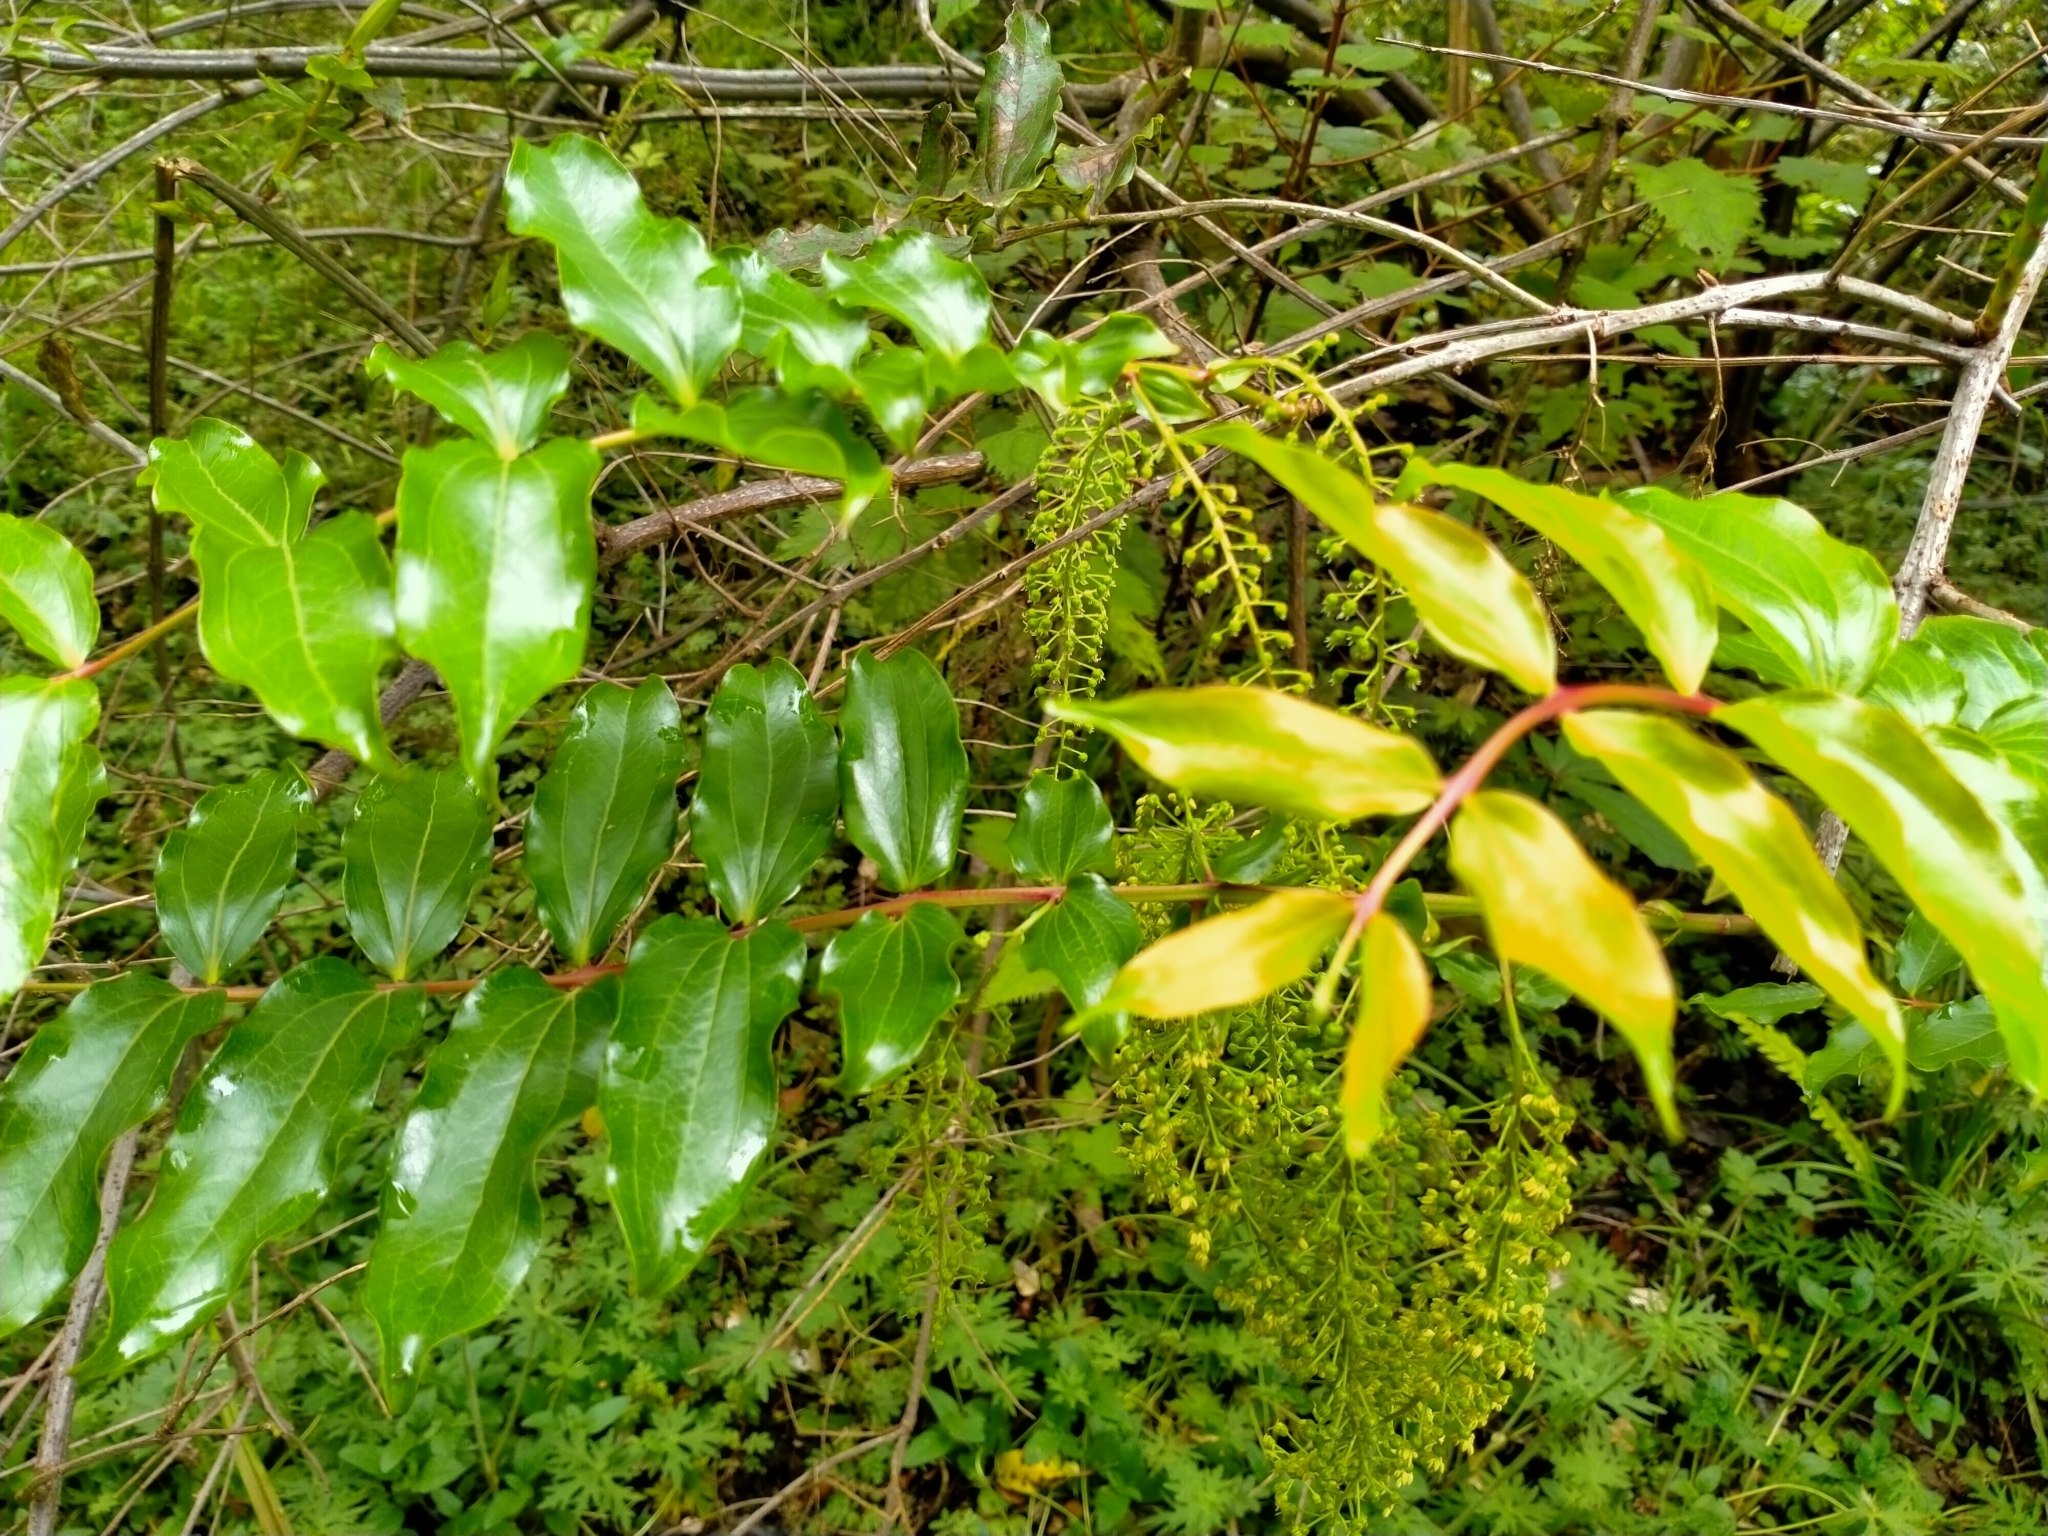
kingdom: Plantae
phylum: Tracheophyta
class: Magnoliopsida
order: Cucurbitales
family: Coriariaceae
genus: Coriaria
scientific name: Coriaria arborea
